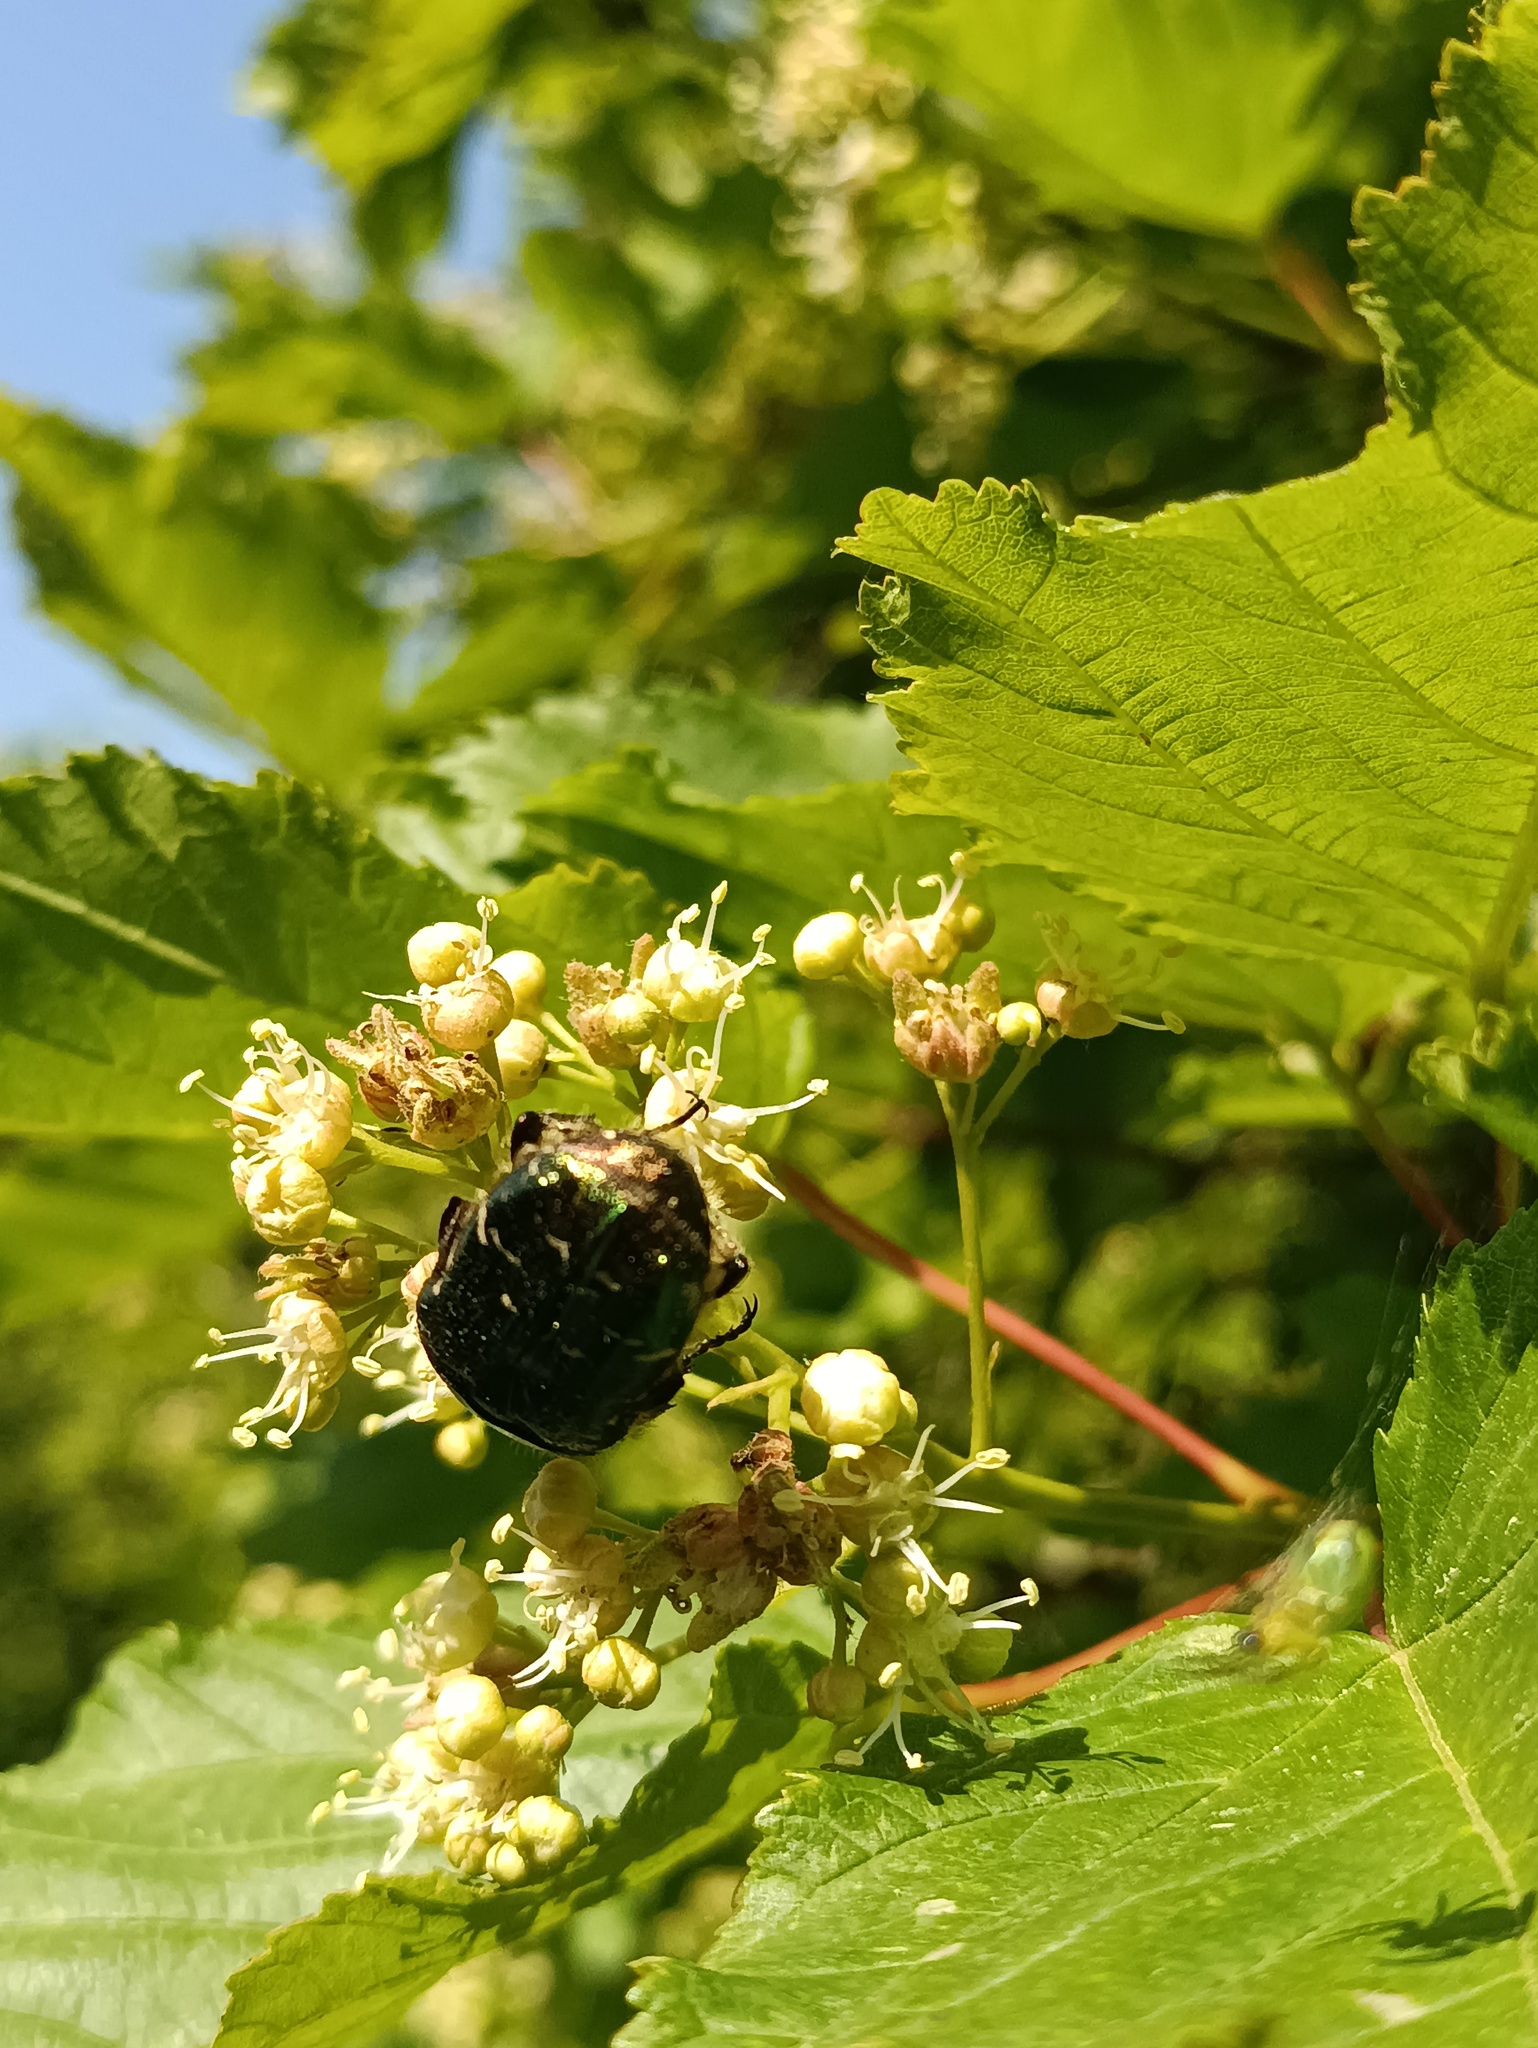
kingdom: Animalia
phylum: Arthropoda
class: Insecta
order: Coleoptera
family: Scarabaeidae
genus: Cetonia
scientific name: Cetonia aurata
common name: Rose chafer
